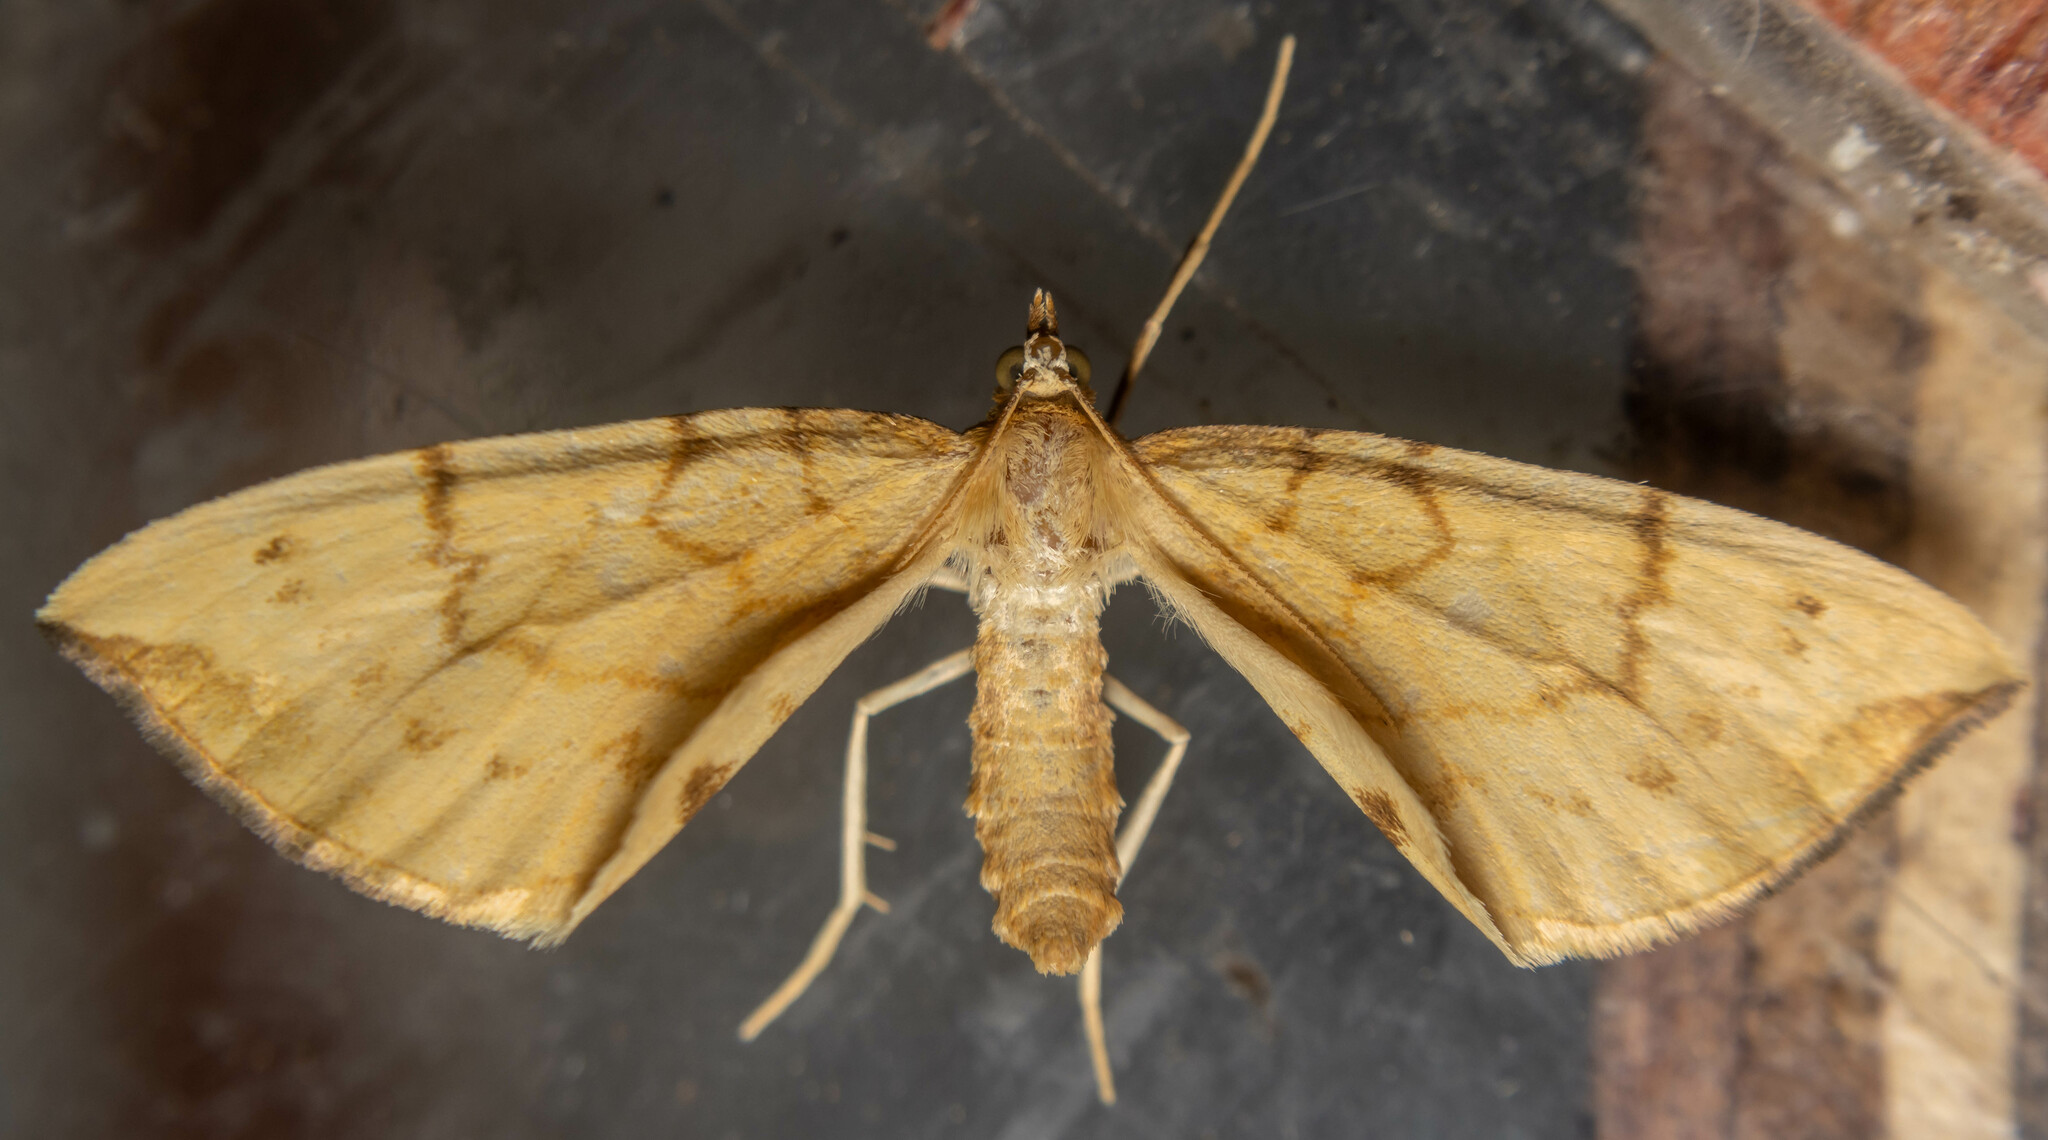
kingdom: Animalia
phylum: Arthropoda
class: Insecta
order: Lepidoptera
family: Geometridae
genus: Eulithis
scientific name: Eulithis pyraliata
